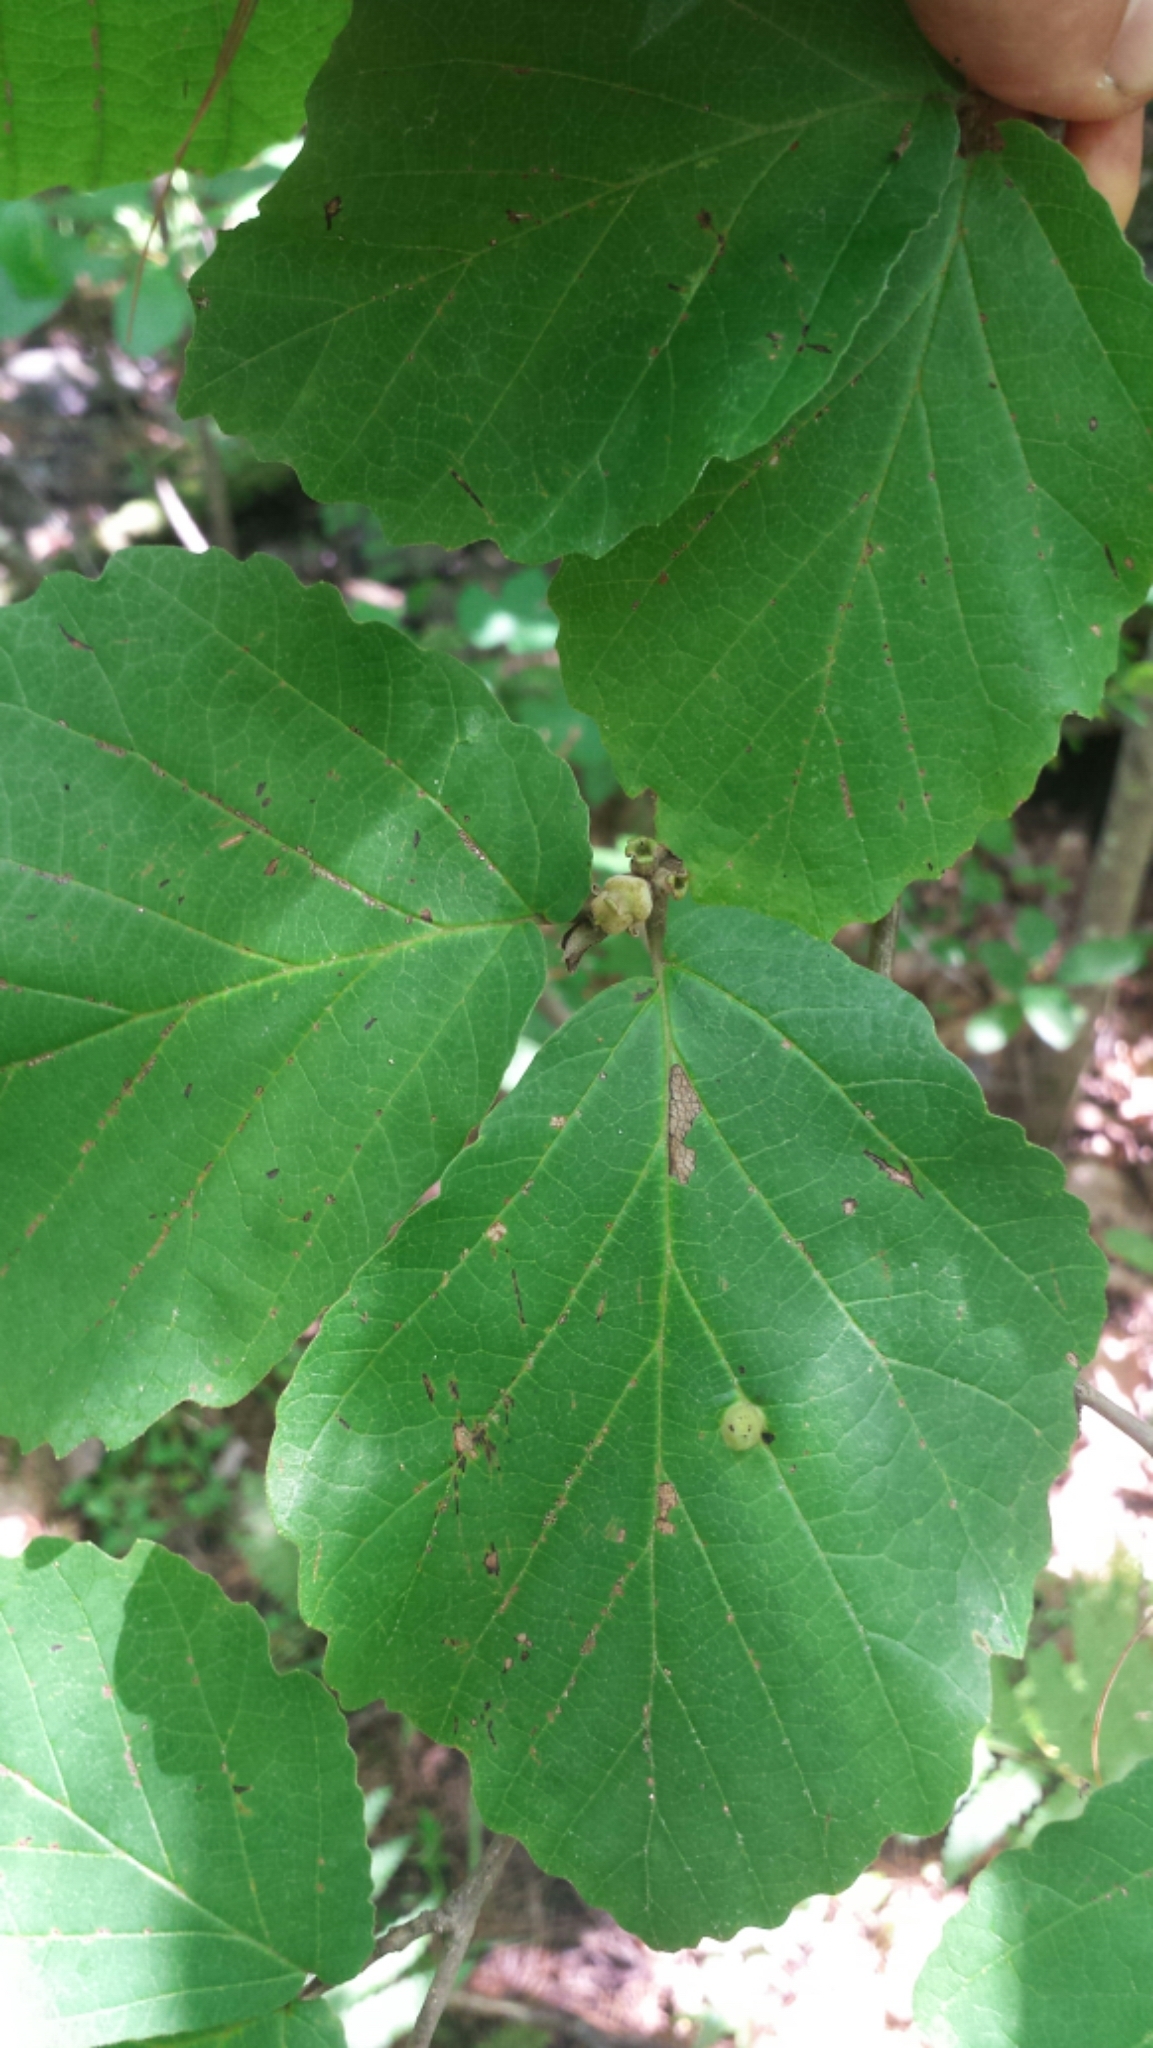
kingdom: Plantae
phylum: Tracheophyta
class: Magnoliopsida
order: Saxifragales
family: Hamamelidaceae
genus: Hamamelis
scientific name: Hamamelis virginiana
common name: Witch-hazel
